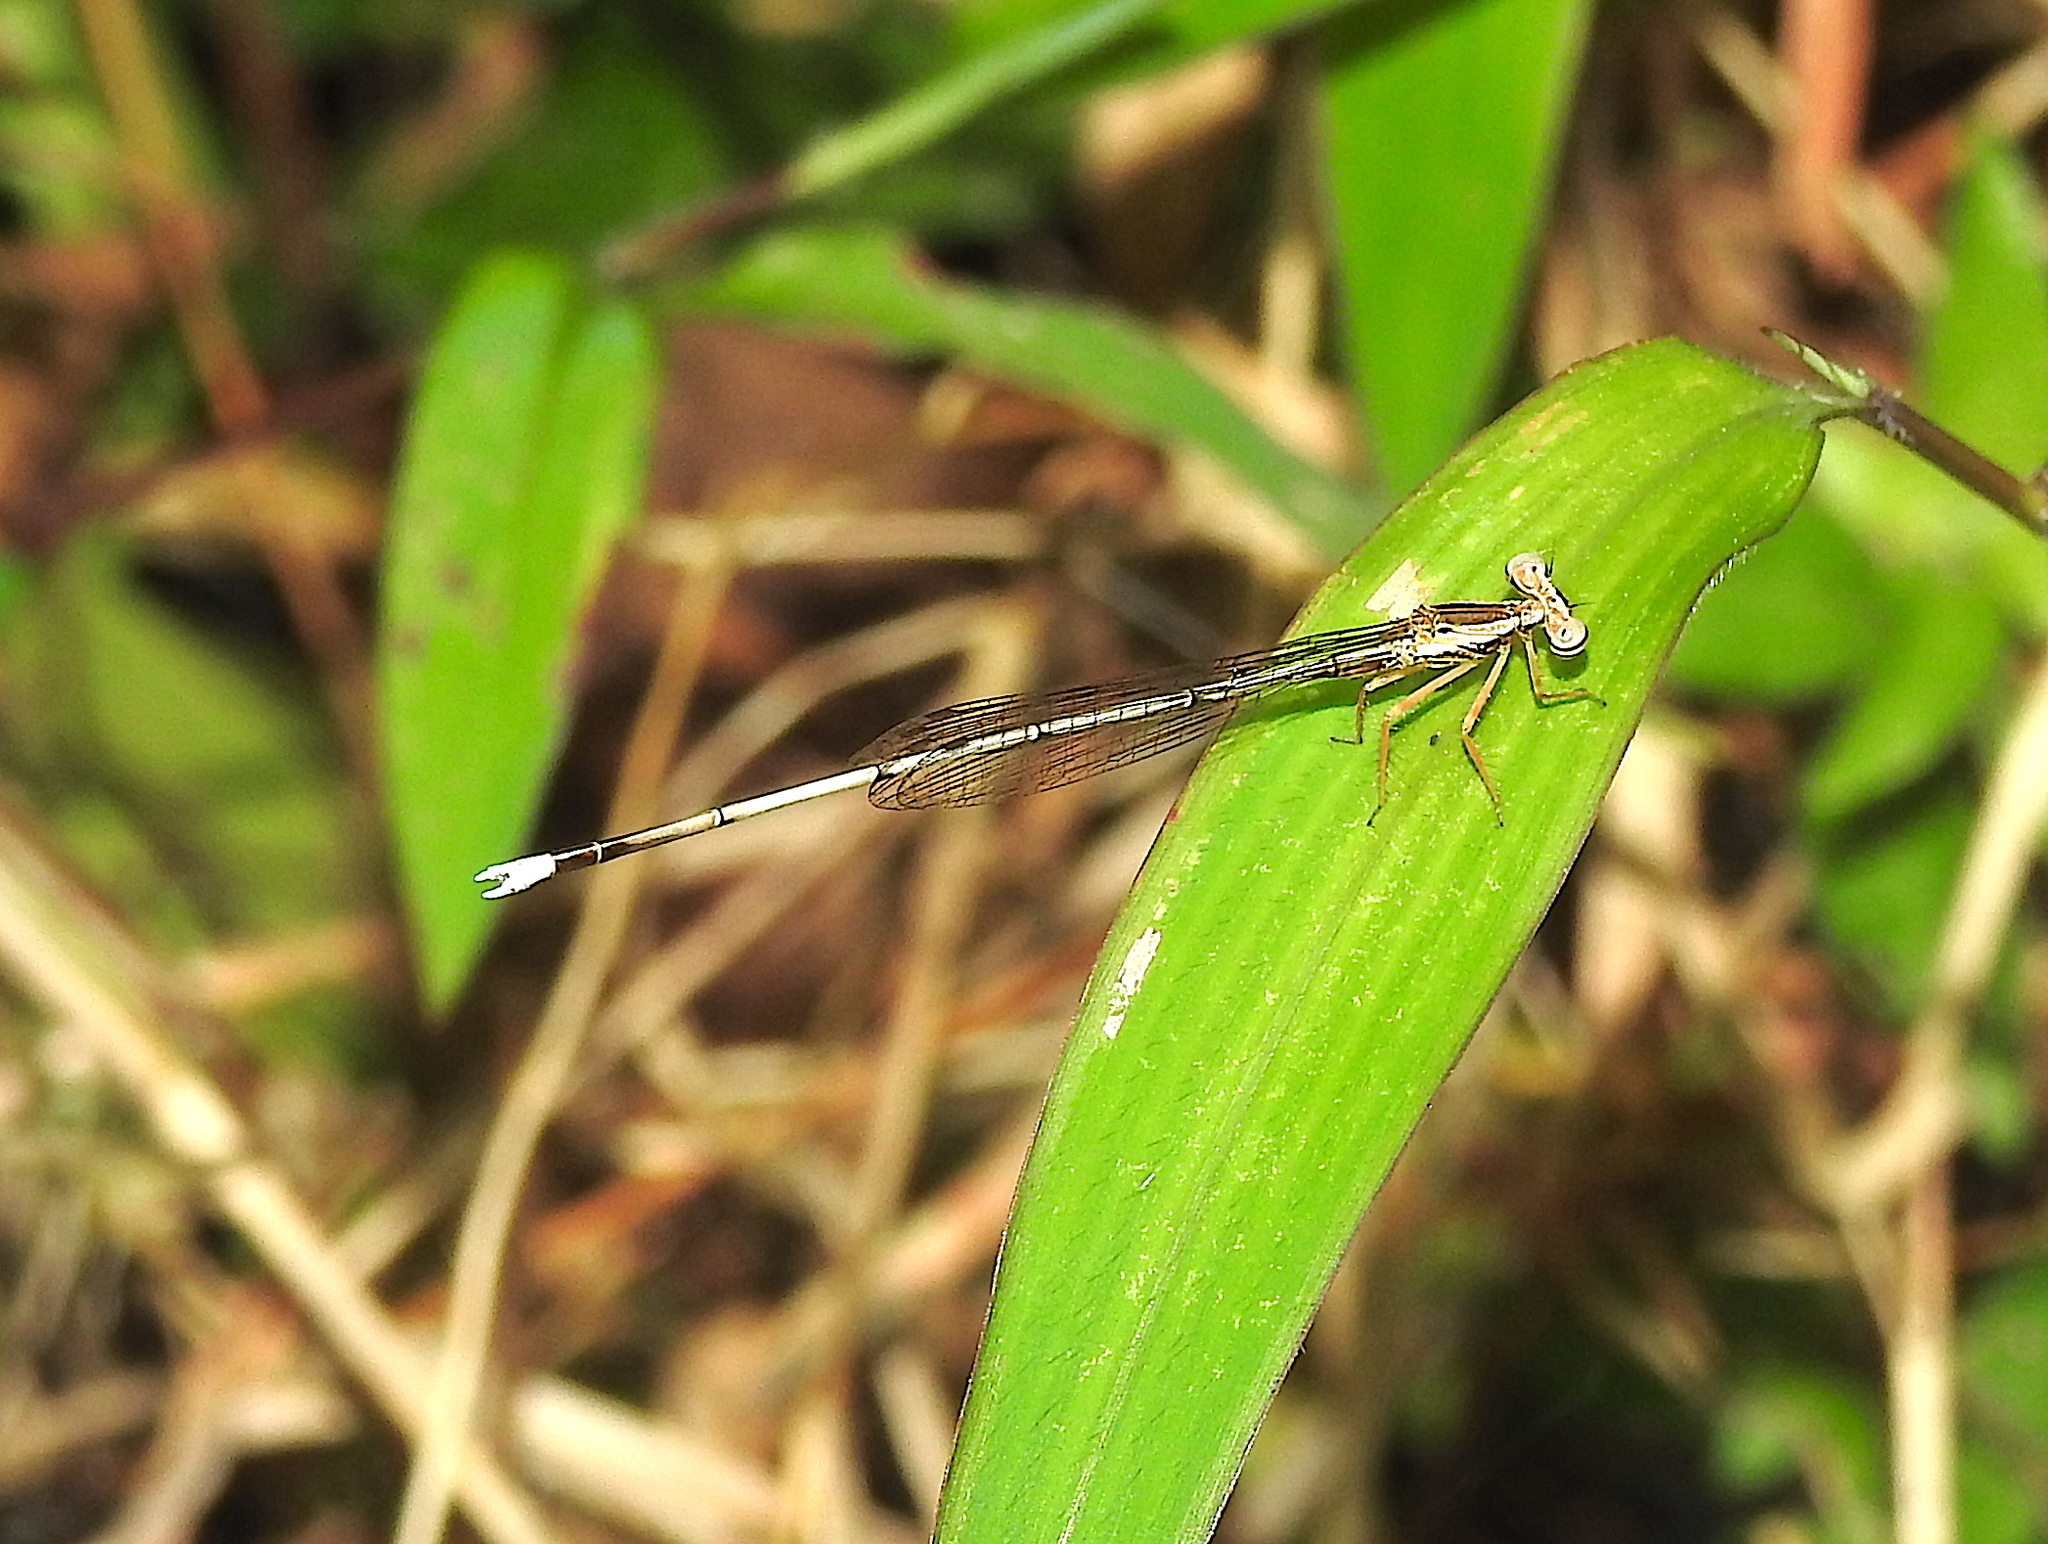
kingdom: Animalia
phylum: Arthropoda
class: Insecta
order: Odonata
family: Platycnemididae
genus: Copera
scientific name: Copera vittata
